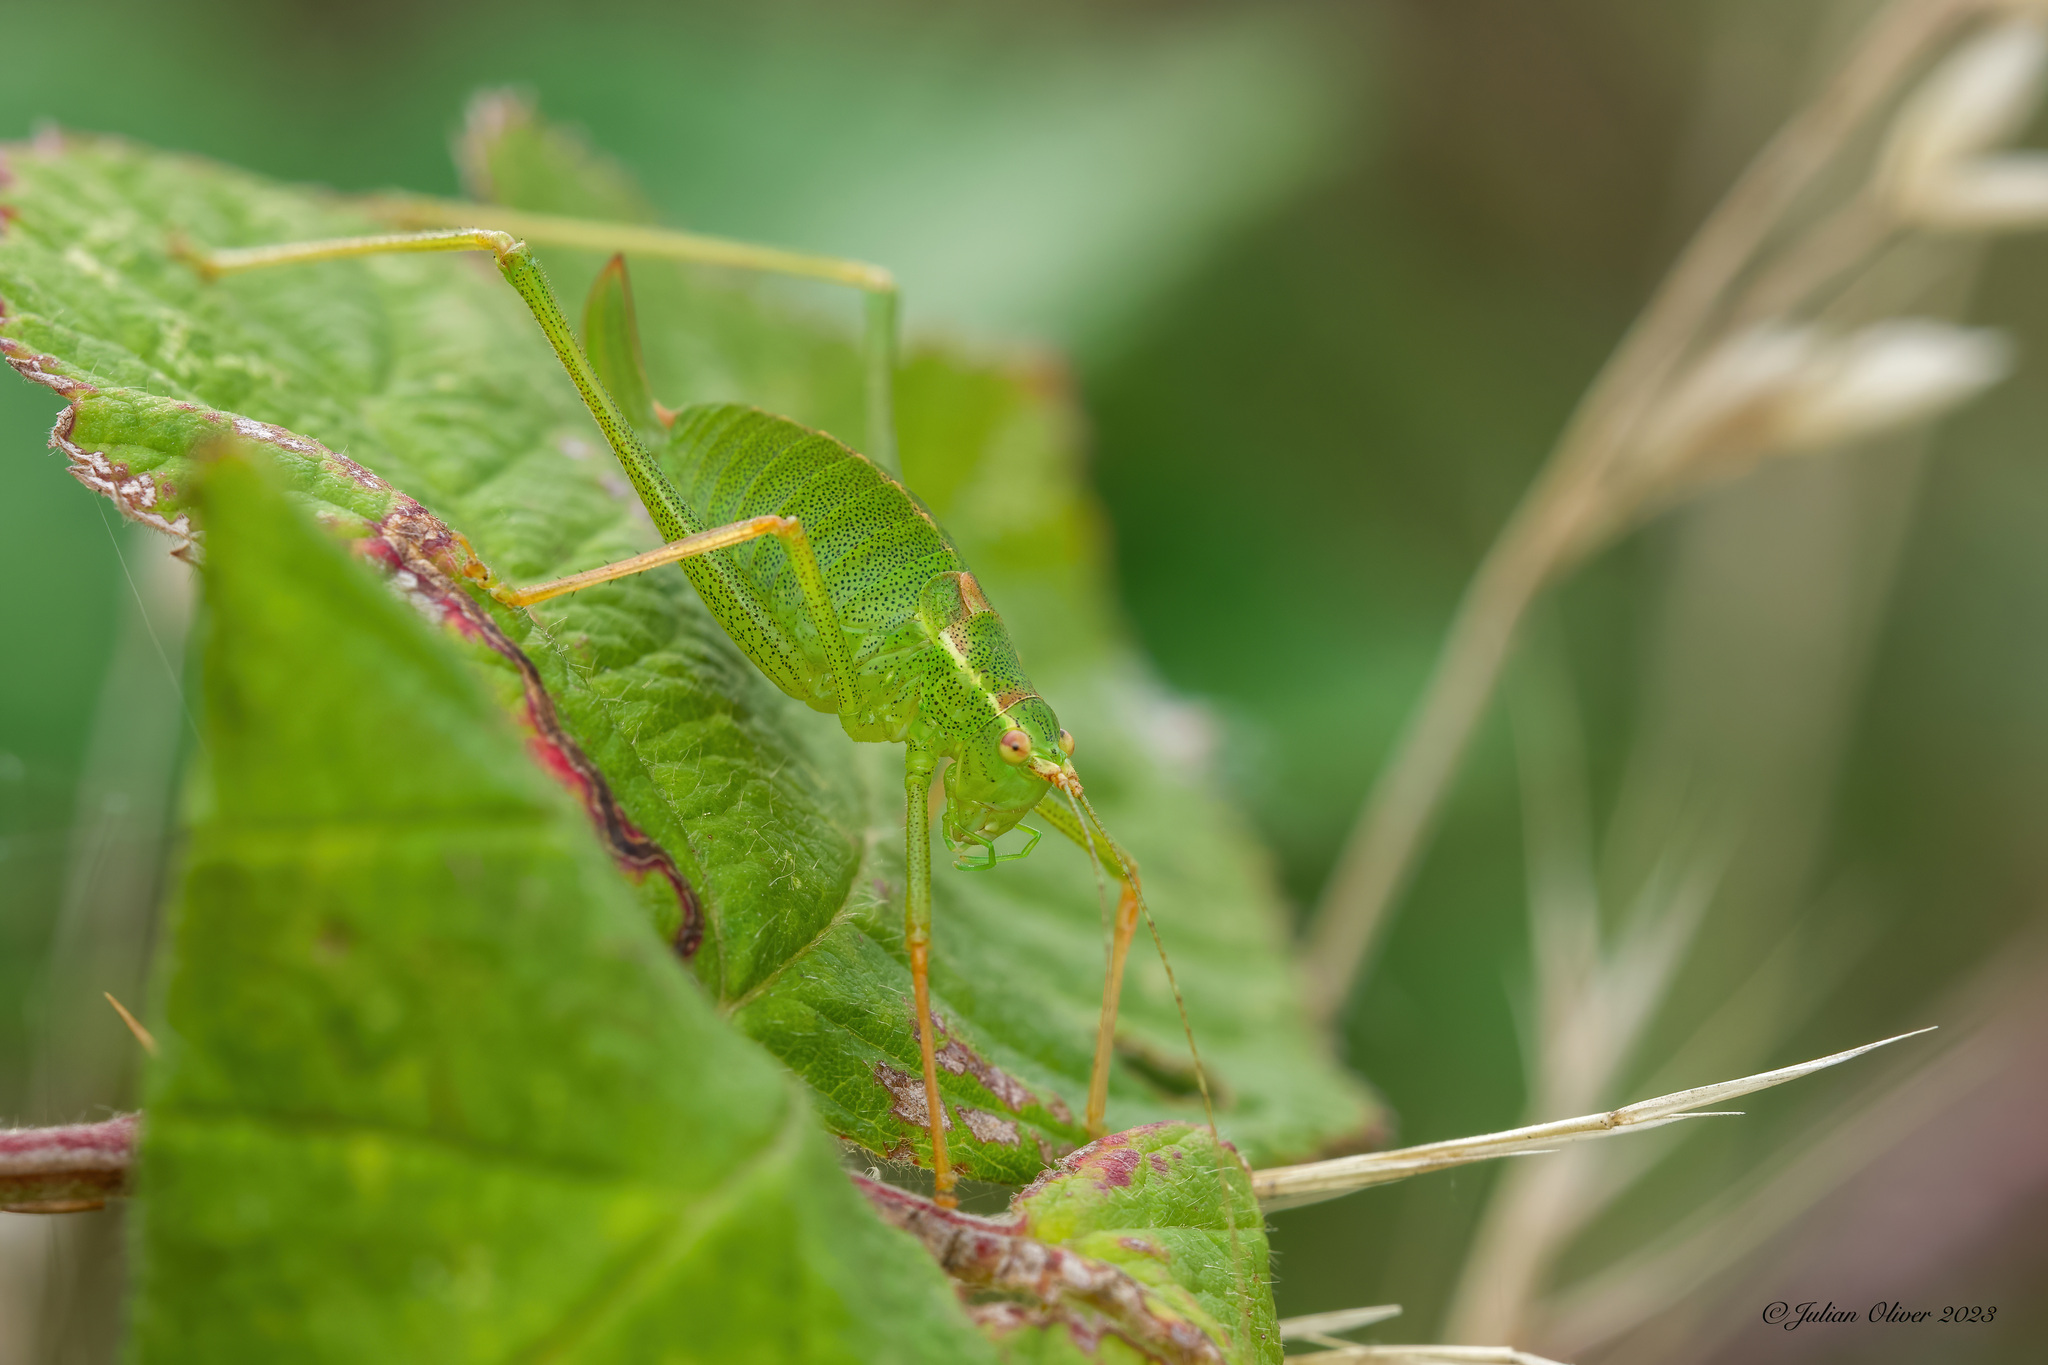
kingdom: Animalia
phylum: Arthropoda
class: Insecta
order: Orthoptera
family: Tettigoniidae
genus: Leptophyes
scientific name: Leptophyes punctatissima
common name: Speckled bush-cricket
